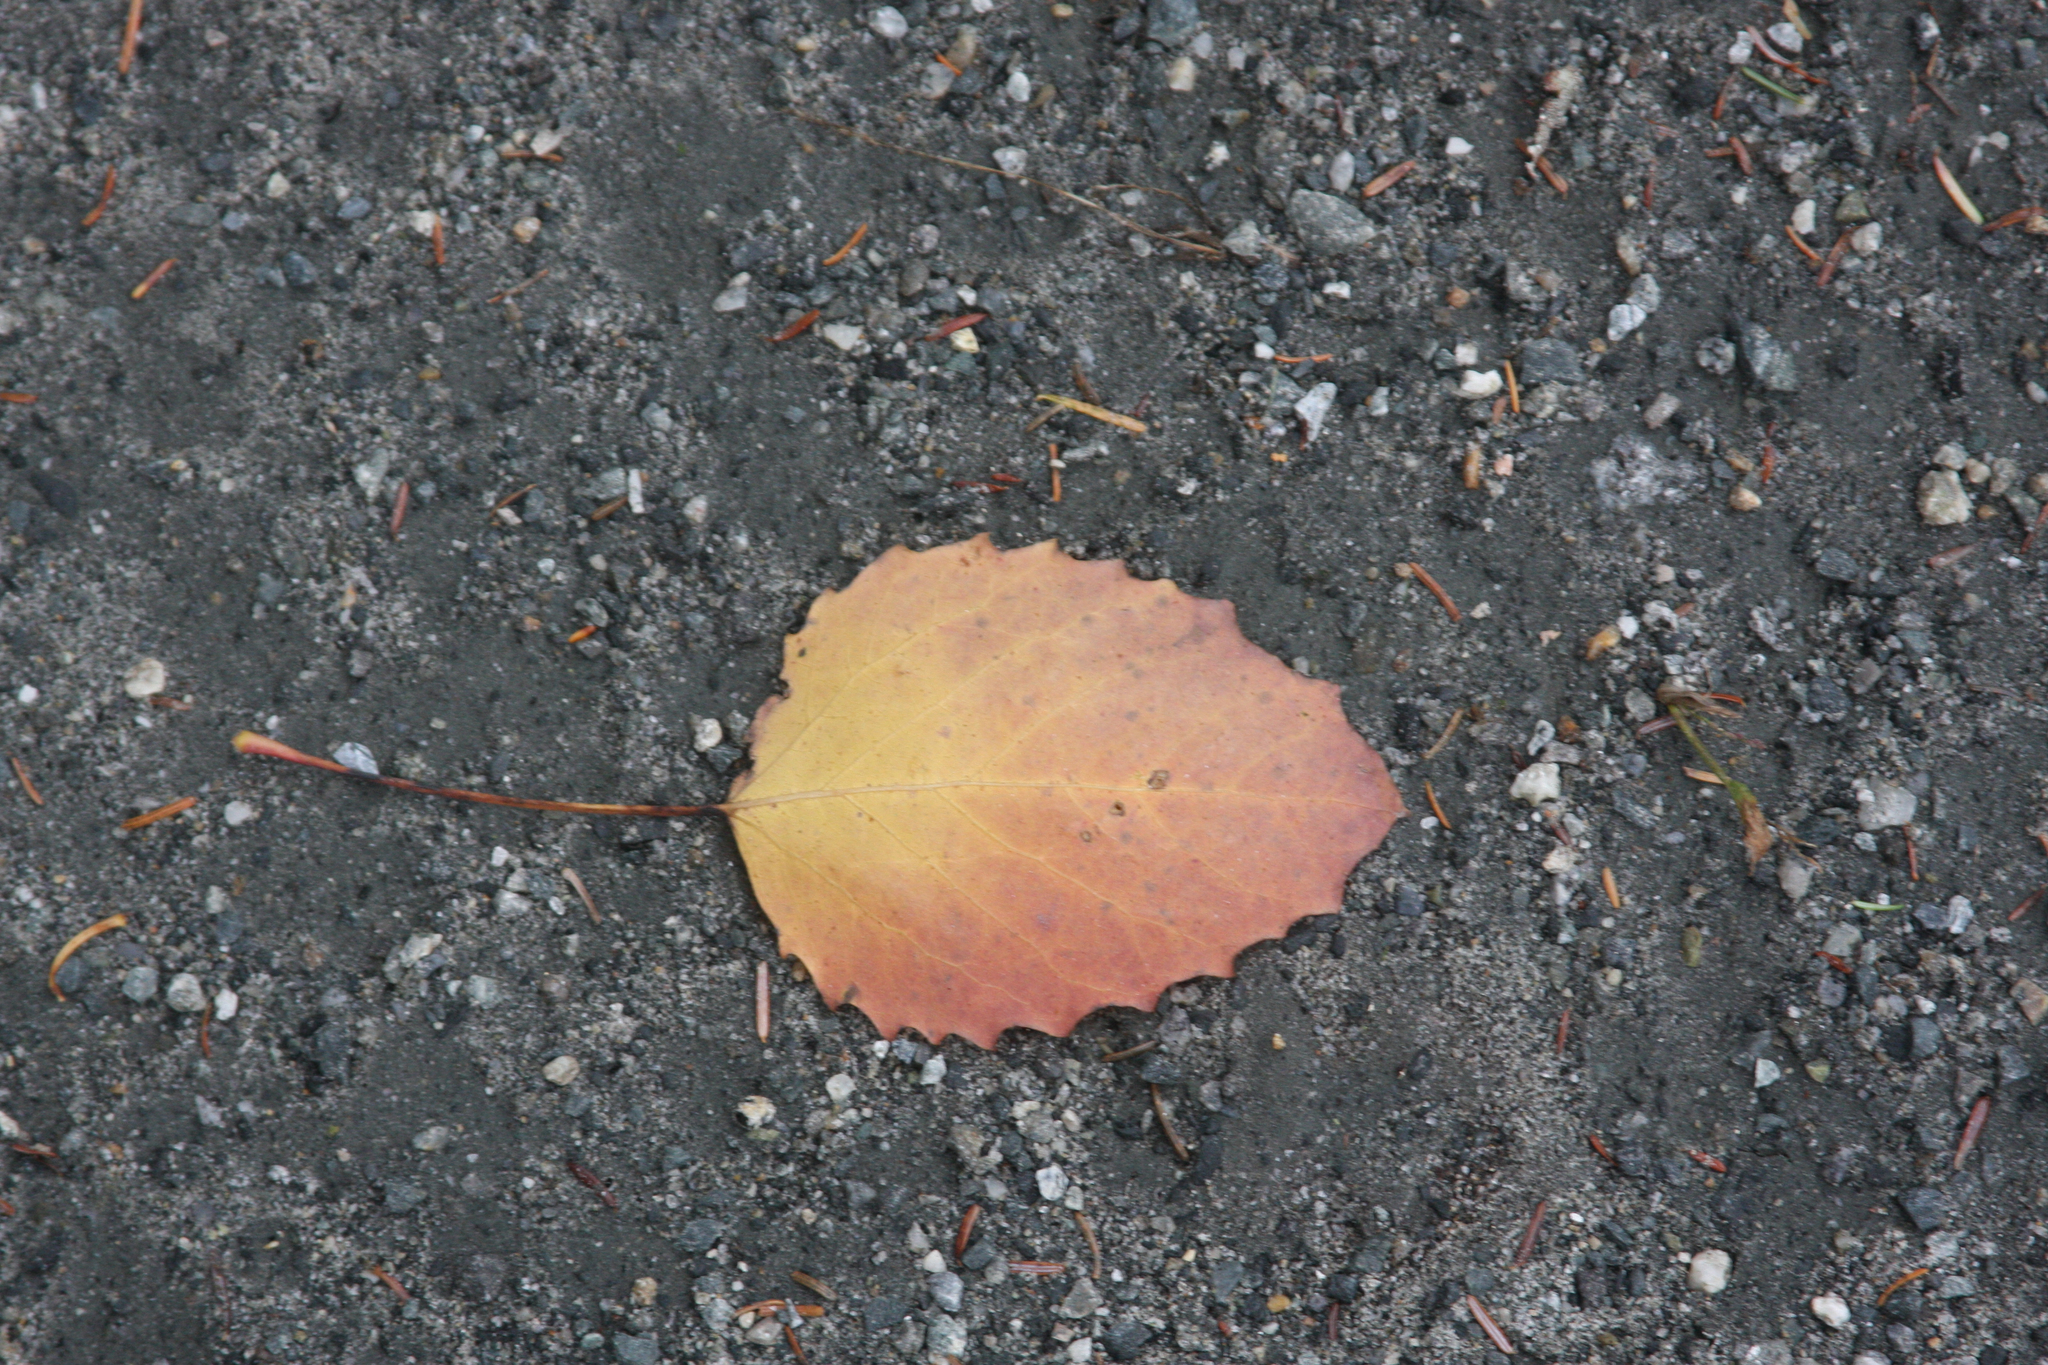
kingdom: Plantae
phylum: Tracheophyta
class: Magnoliopsida
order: Malpighiales
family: Salicaceae
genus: Populus
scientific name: Populus grandidentata
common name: Bigtooth aspen
